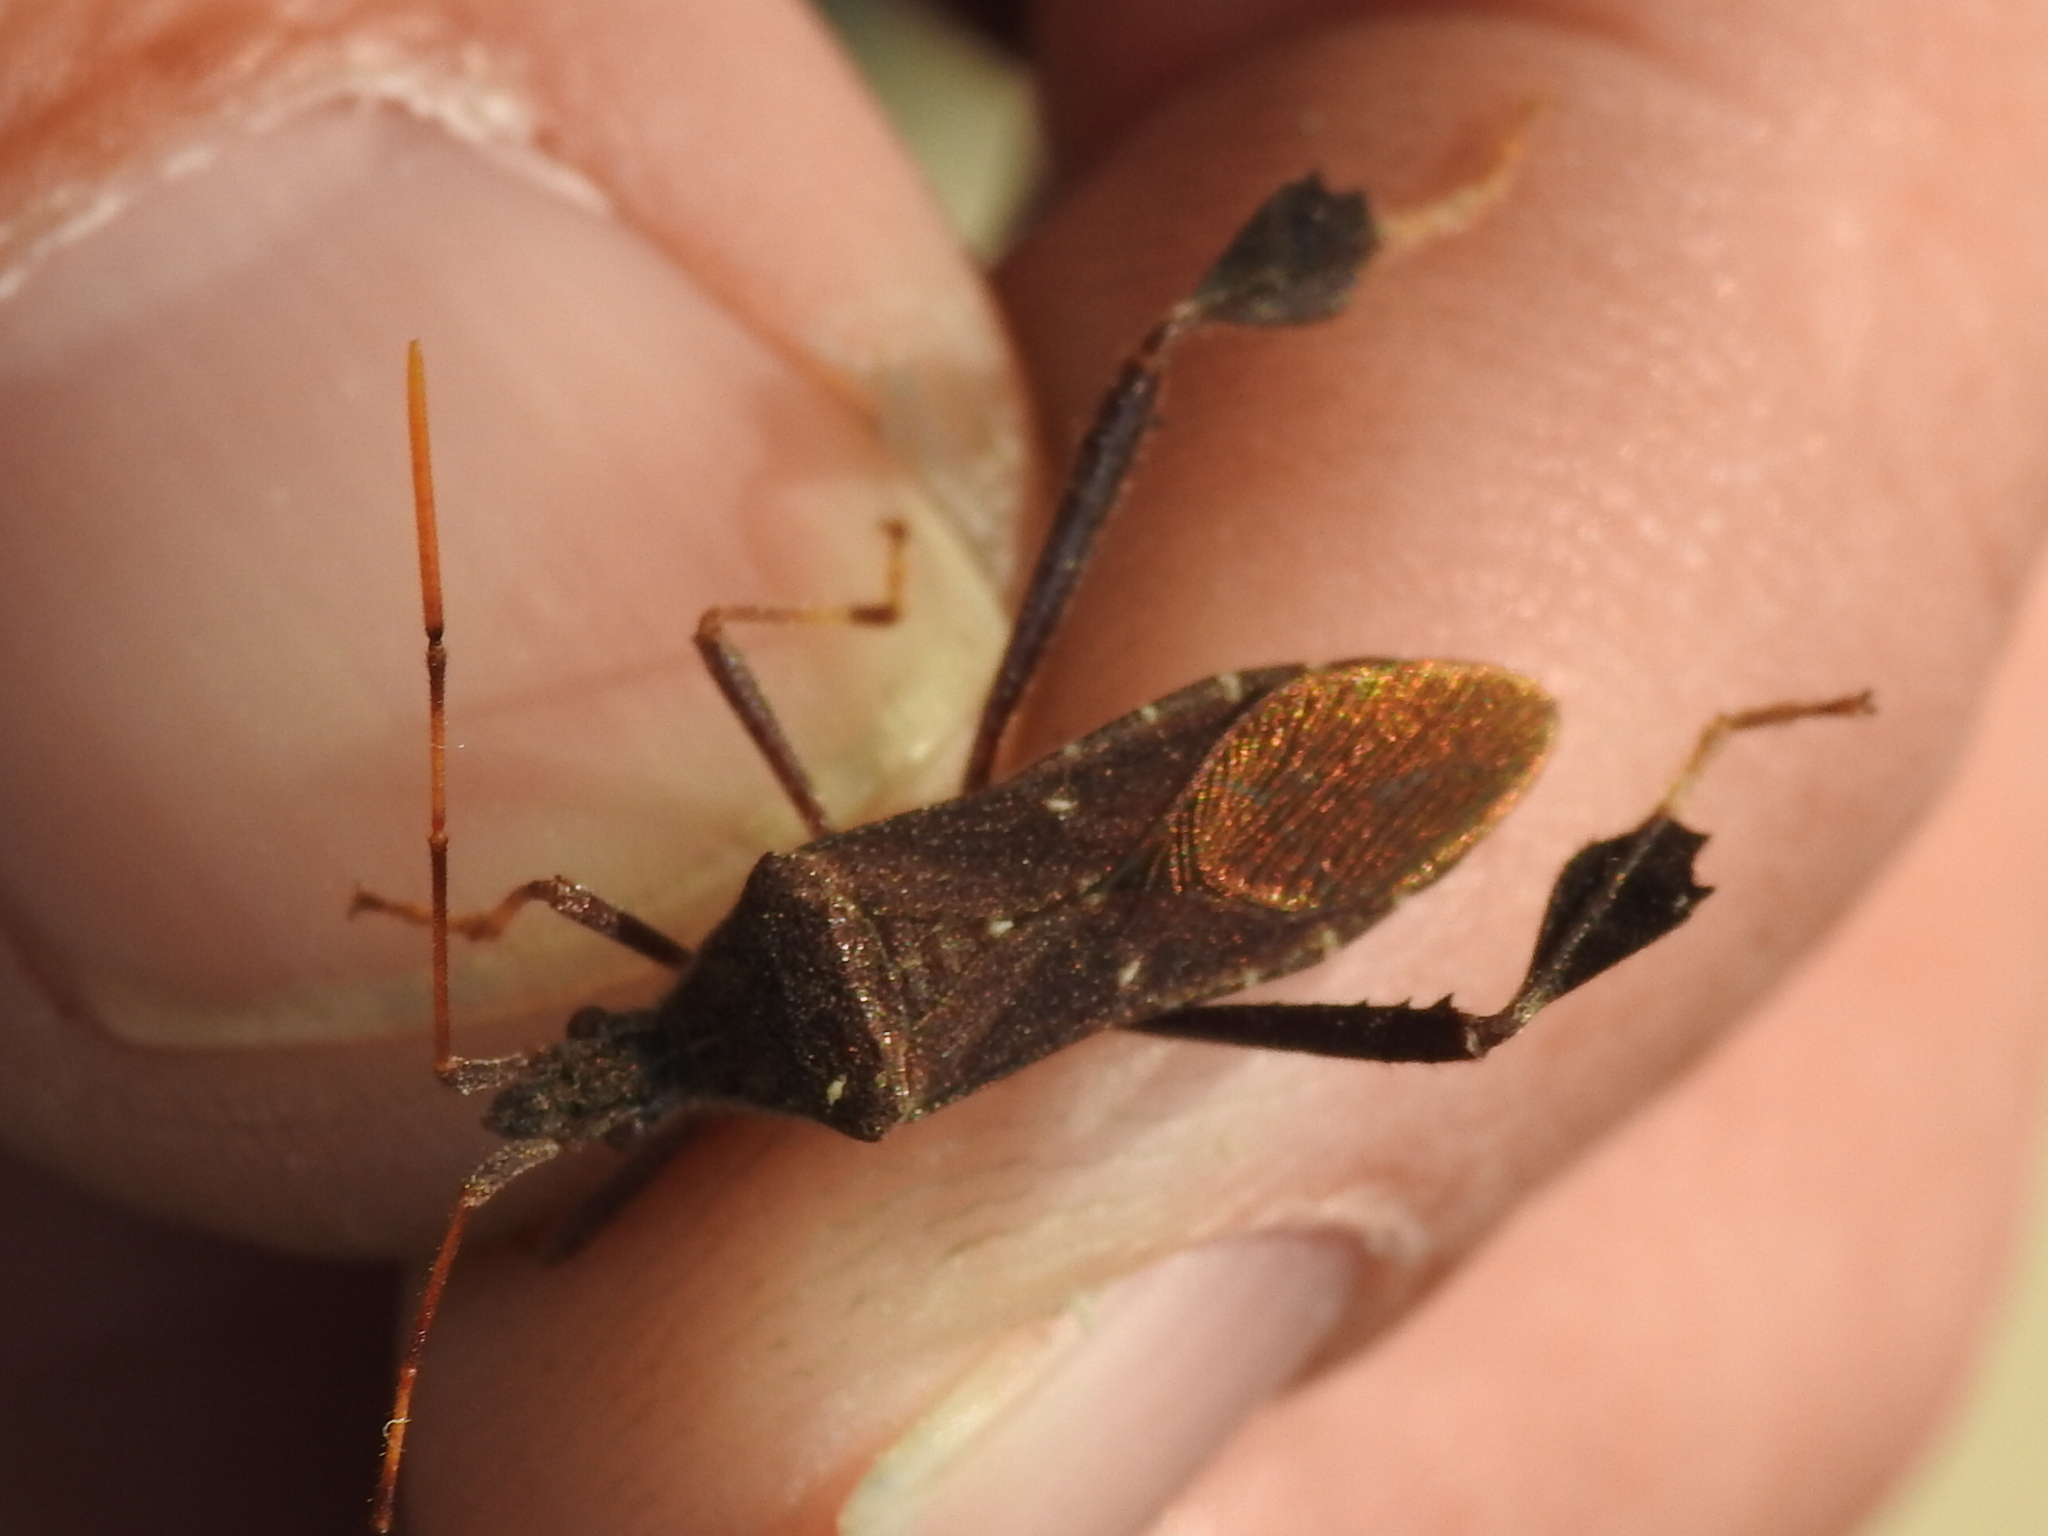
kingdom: Animalia
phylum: Arthropoda
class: Insecta
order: Hemiptera
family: Coreidae
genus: Leptoglossus
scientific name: Leptoglossus oppositus
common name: Northern leaf-footed bug
